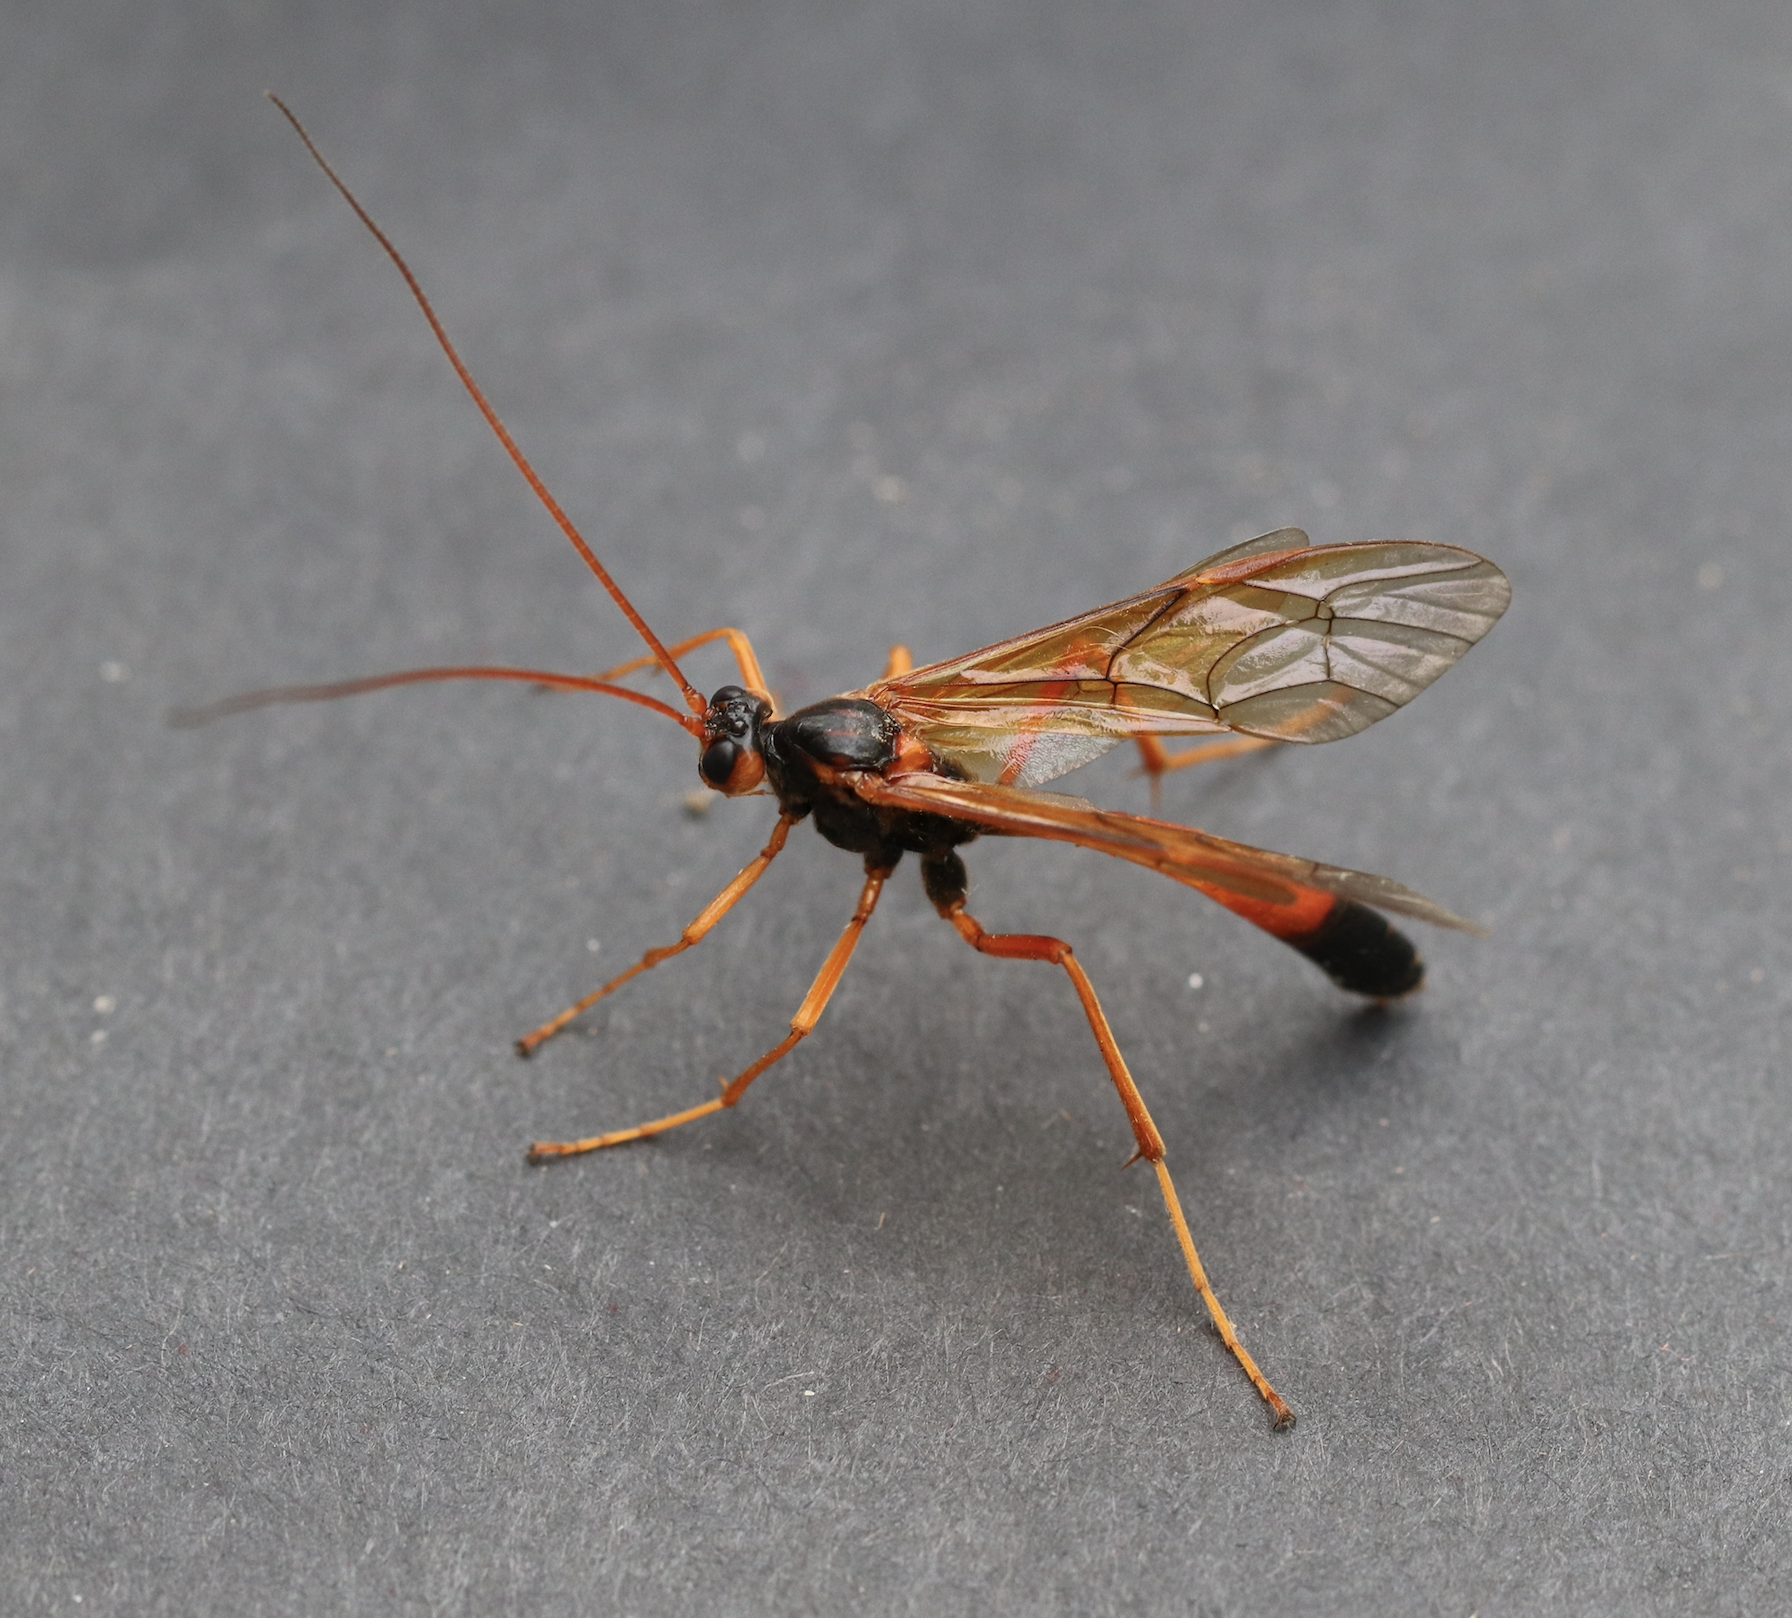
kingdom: Animalia
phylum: Arthropoda
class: Insecta
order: Hymenoptera
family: Ichneumonidae
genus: Opheltes
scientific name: Opheltes glaucopterus
